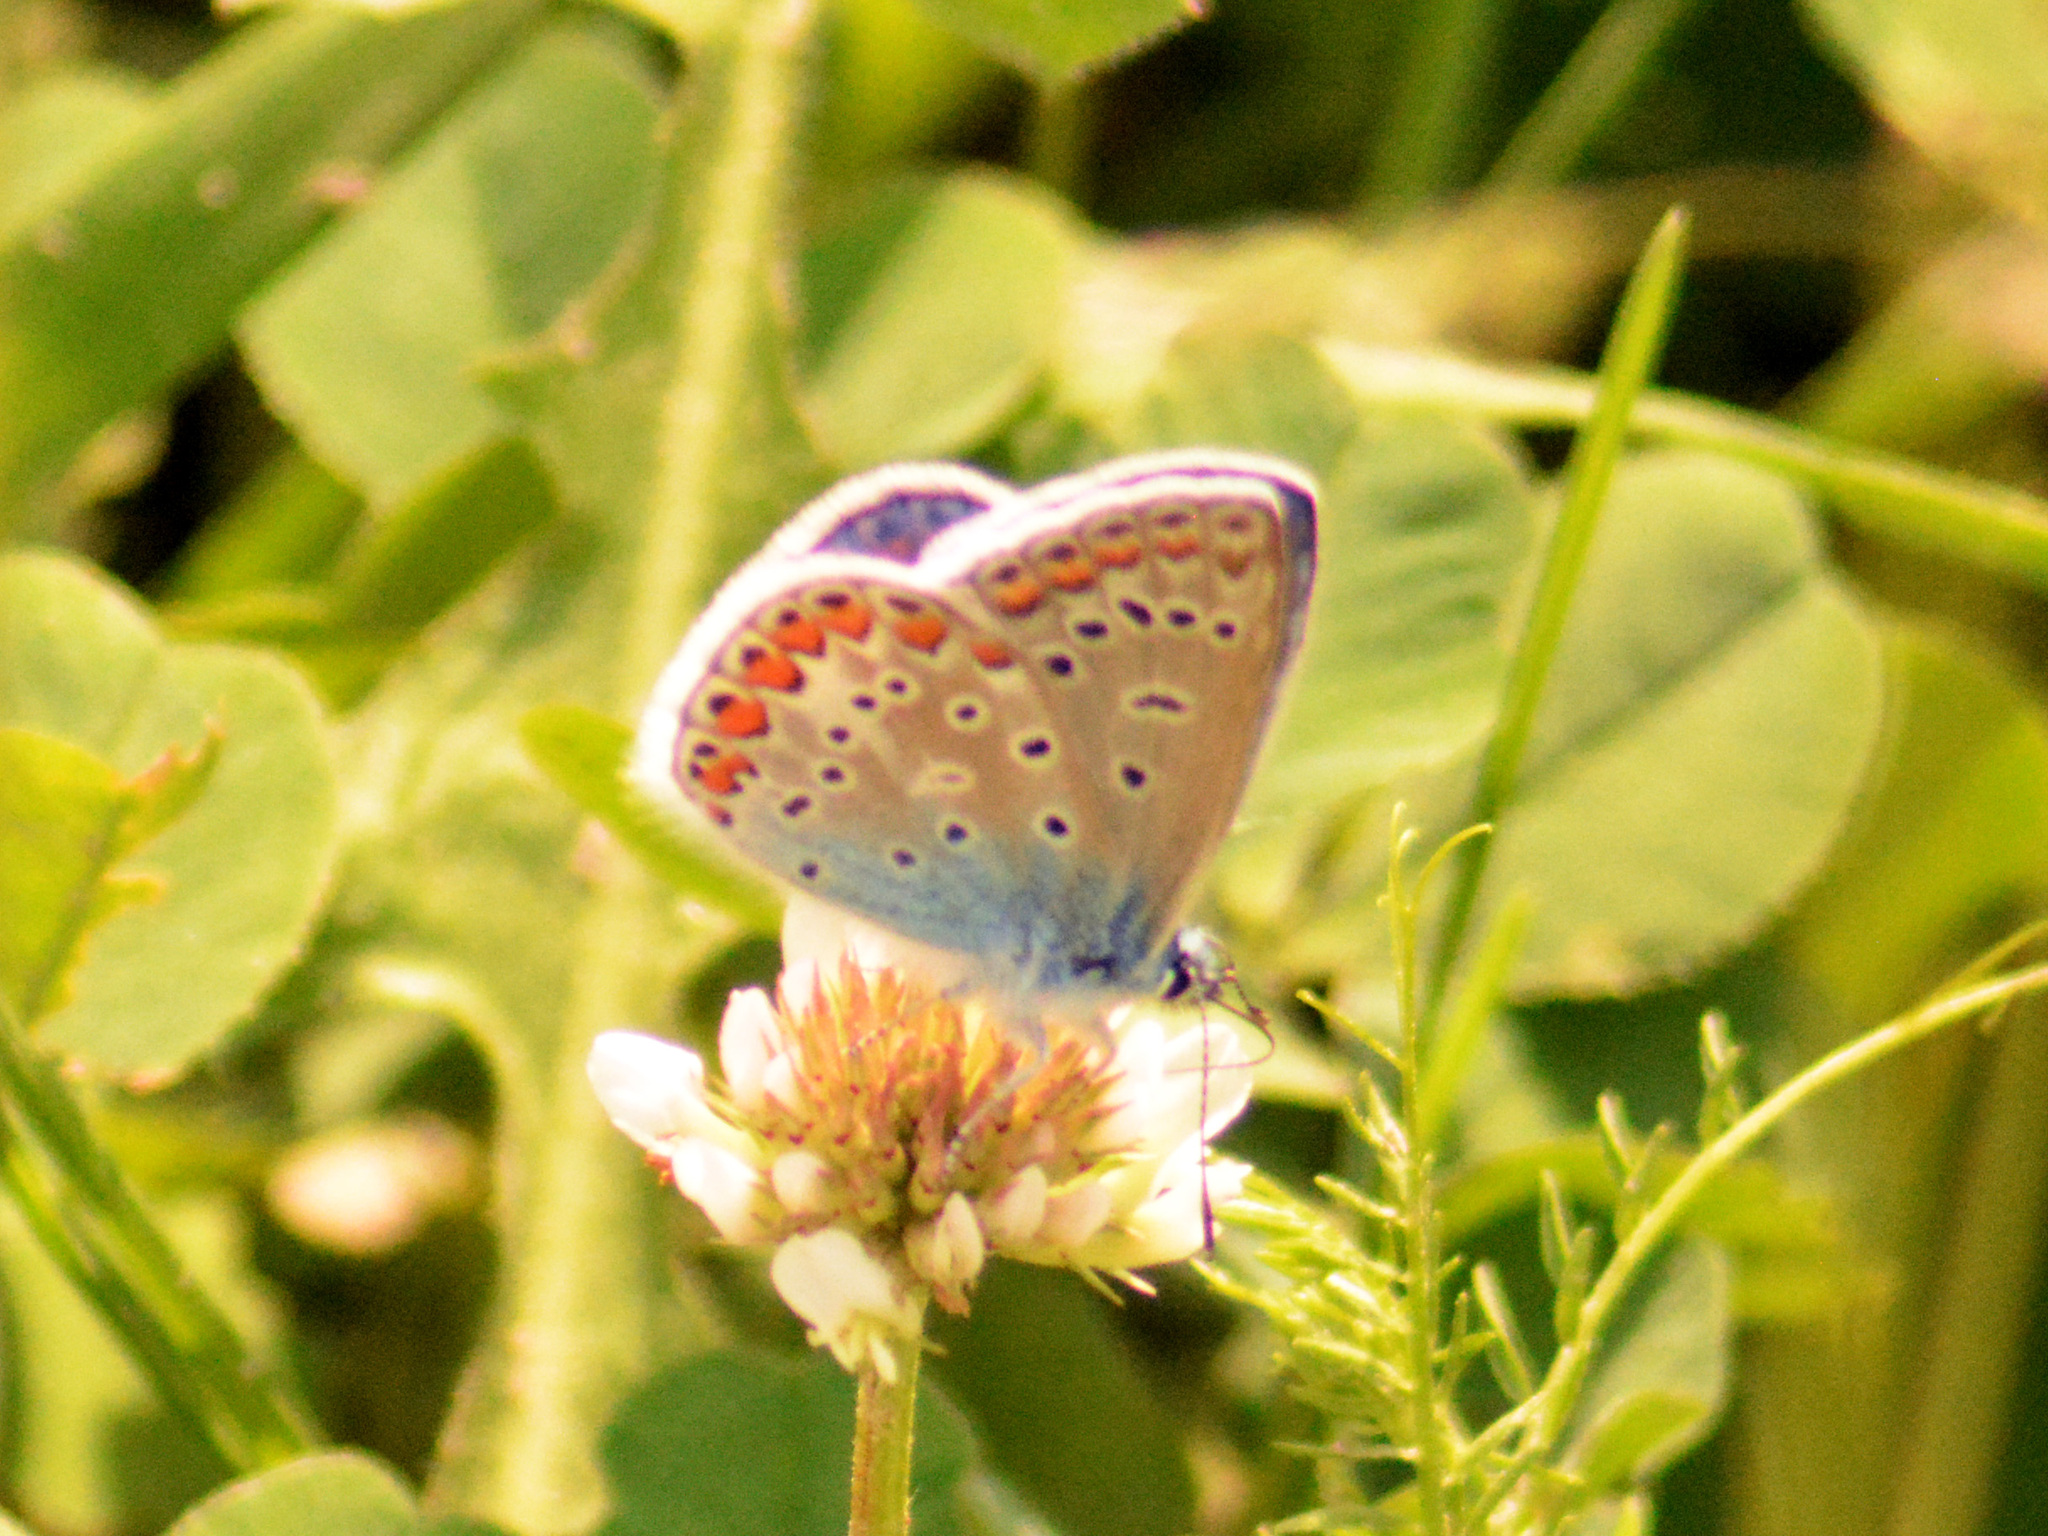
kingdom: Animalia
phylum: Arthropoda
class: Insecta
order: Lepidoptera
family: Lycaenidae
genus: Polyommatus
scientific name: Polyommatus icarus
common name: Common blue
